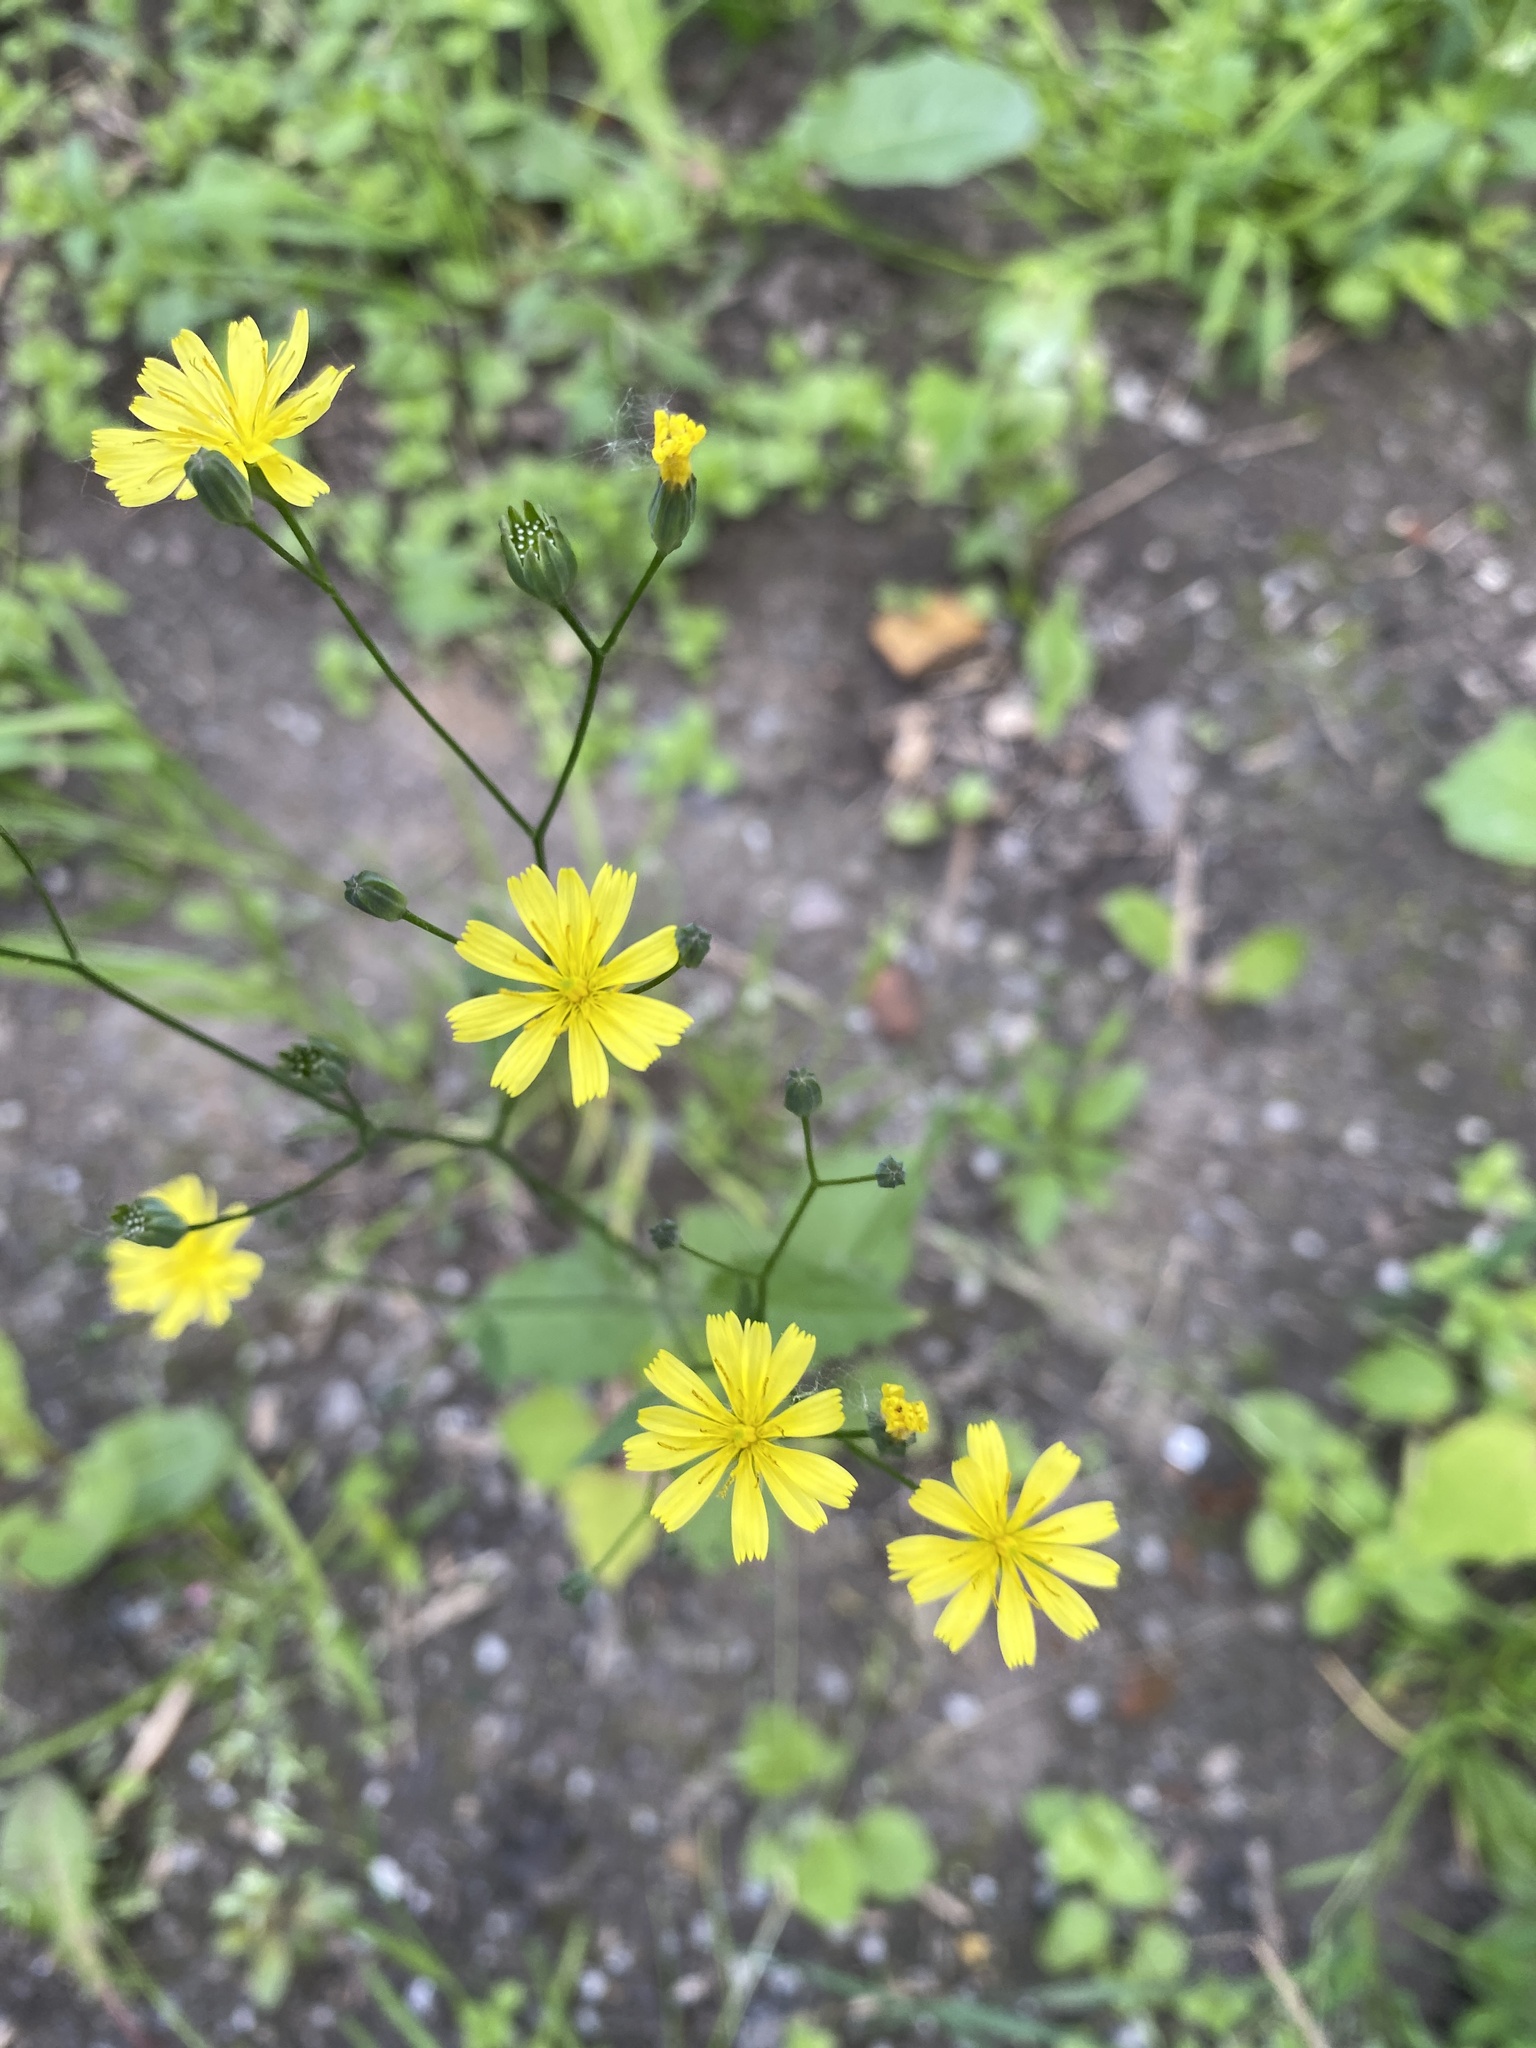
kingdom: Plantae
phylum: Tracheophyta
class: Magnoliopsida
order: Asterales
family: Asteraceae
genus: Lapsana
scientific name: Lapsana communis
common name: Nipplewort
